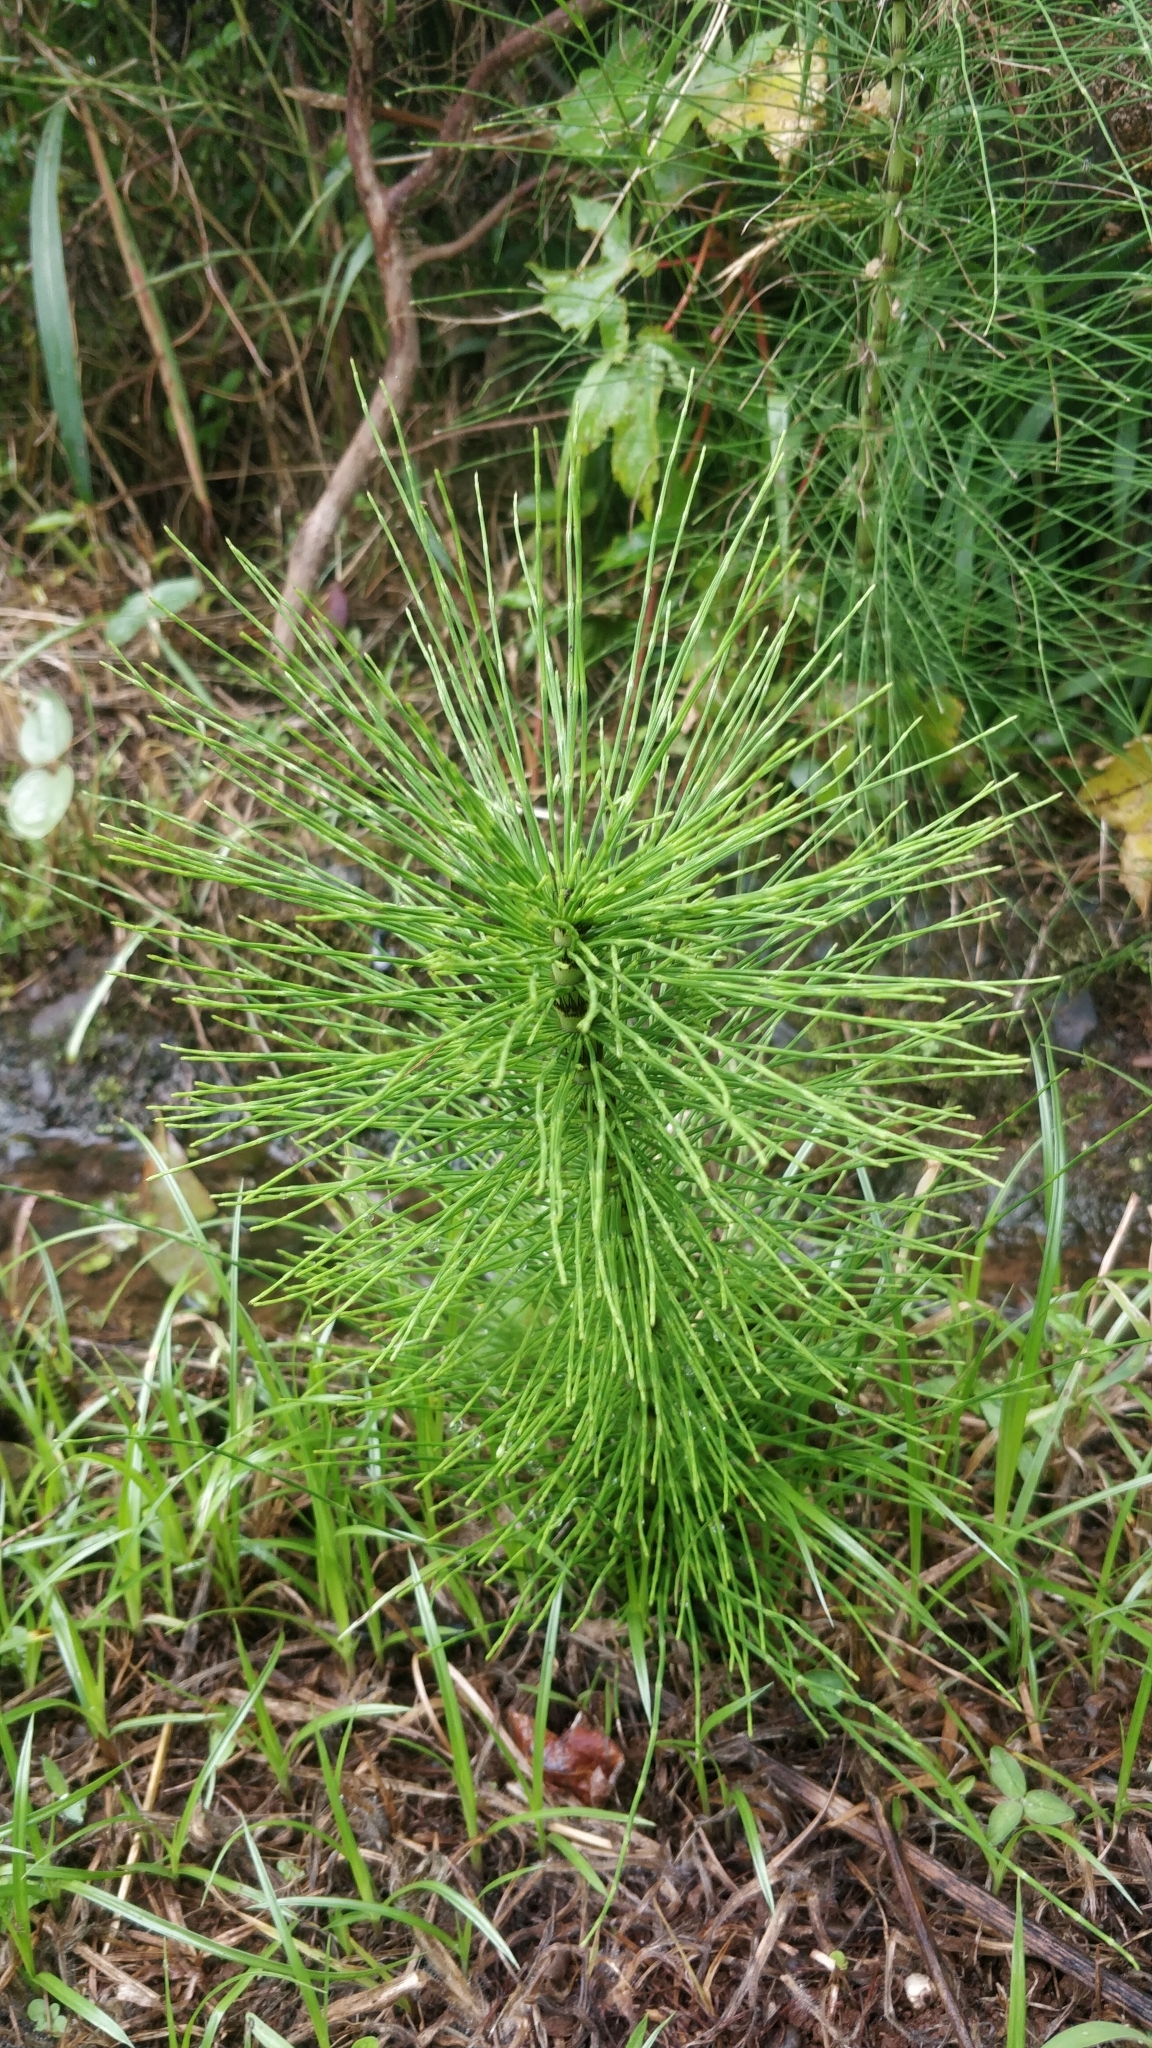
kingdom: Plantae
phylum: Tracheophyta
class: Polypodiopsida
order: Equisetales
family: Equisetaceae
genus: Equisetum
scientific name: Equisetum telmateia
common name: Great horsetail
